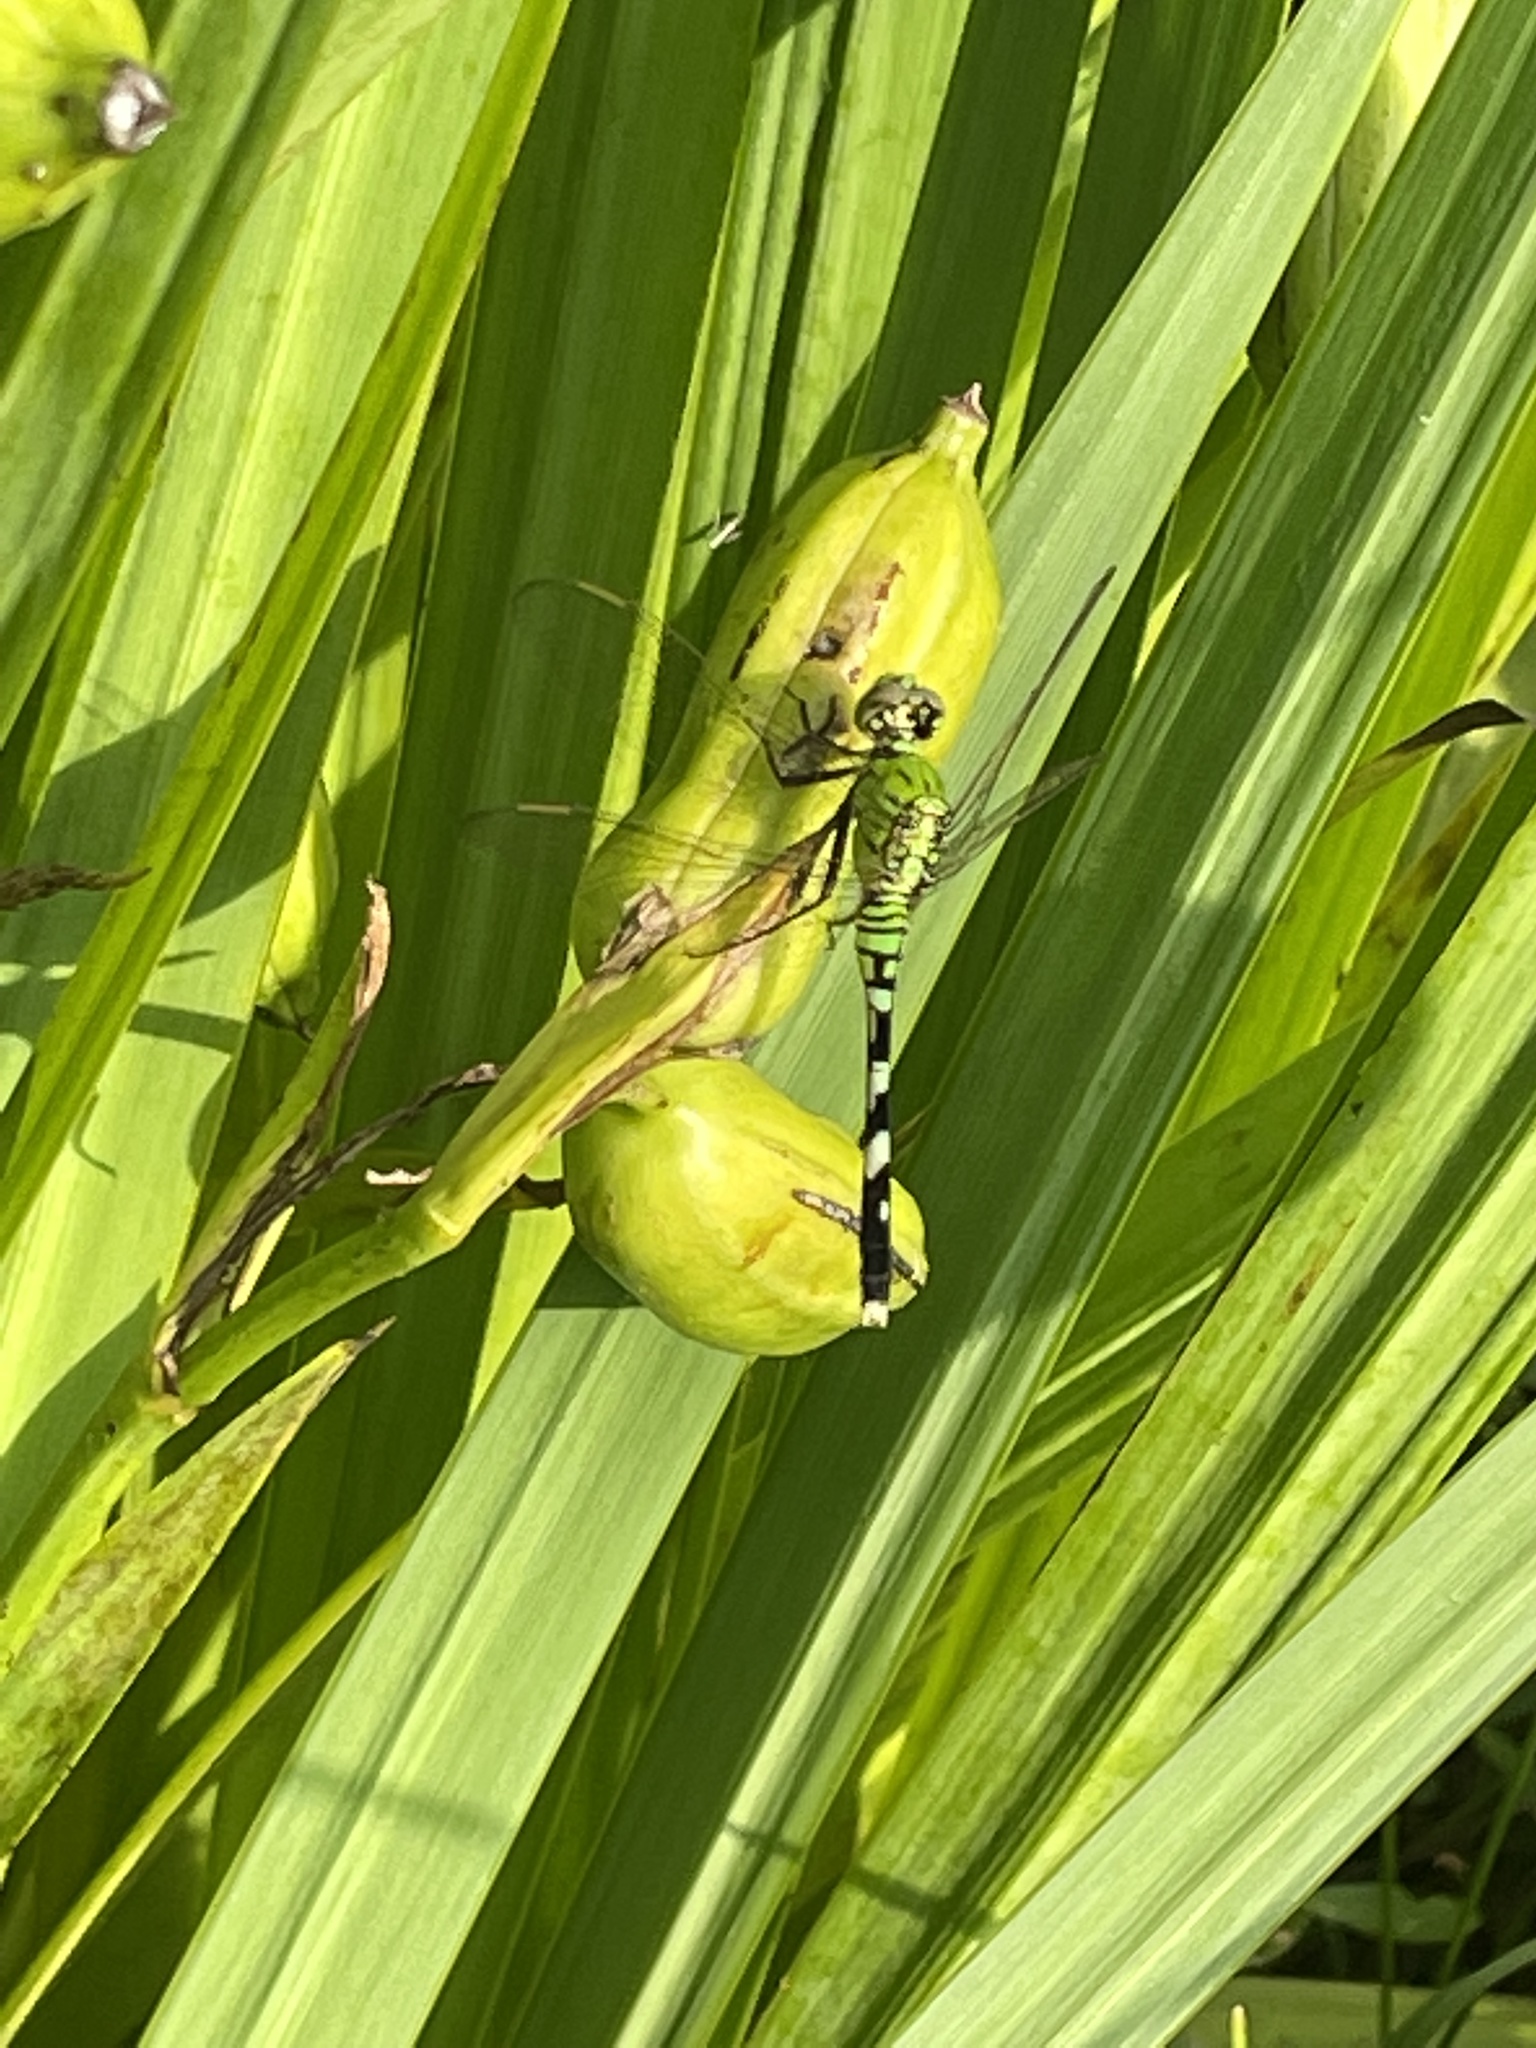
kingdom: Animalia
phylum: Arthropoda
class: Insecta
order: Odonata
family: Libellulidae
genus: Erythemis
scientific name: Erythemis simplicicollis
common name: Eastern pondhawk
